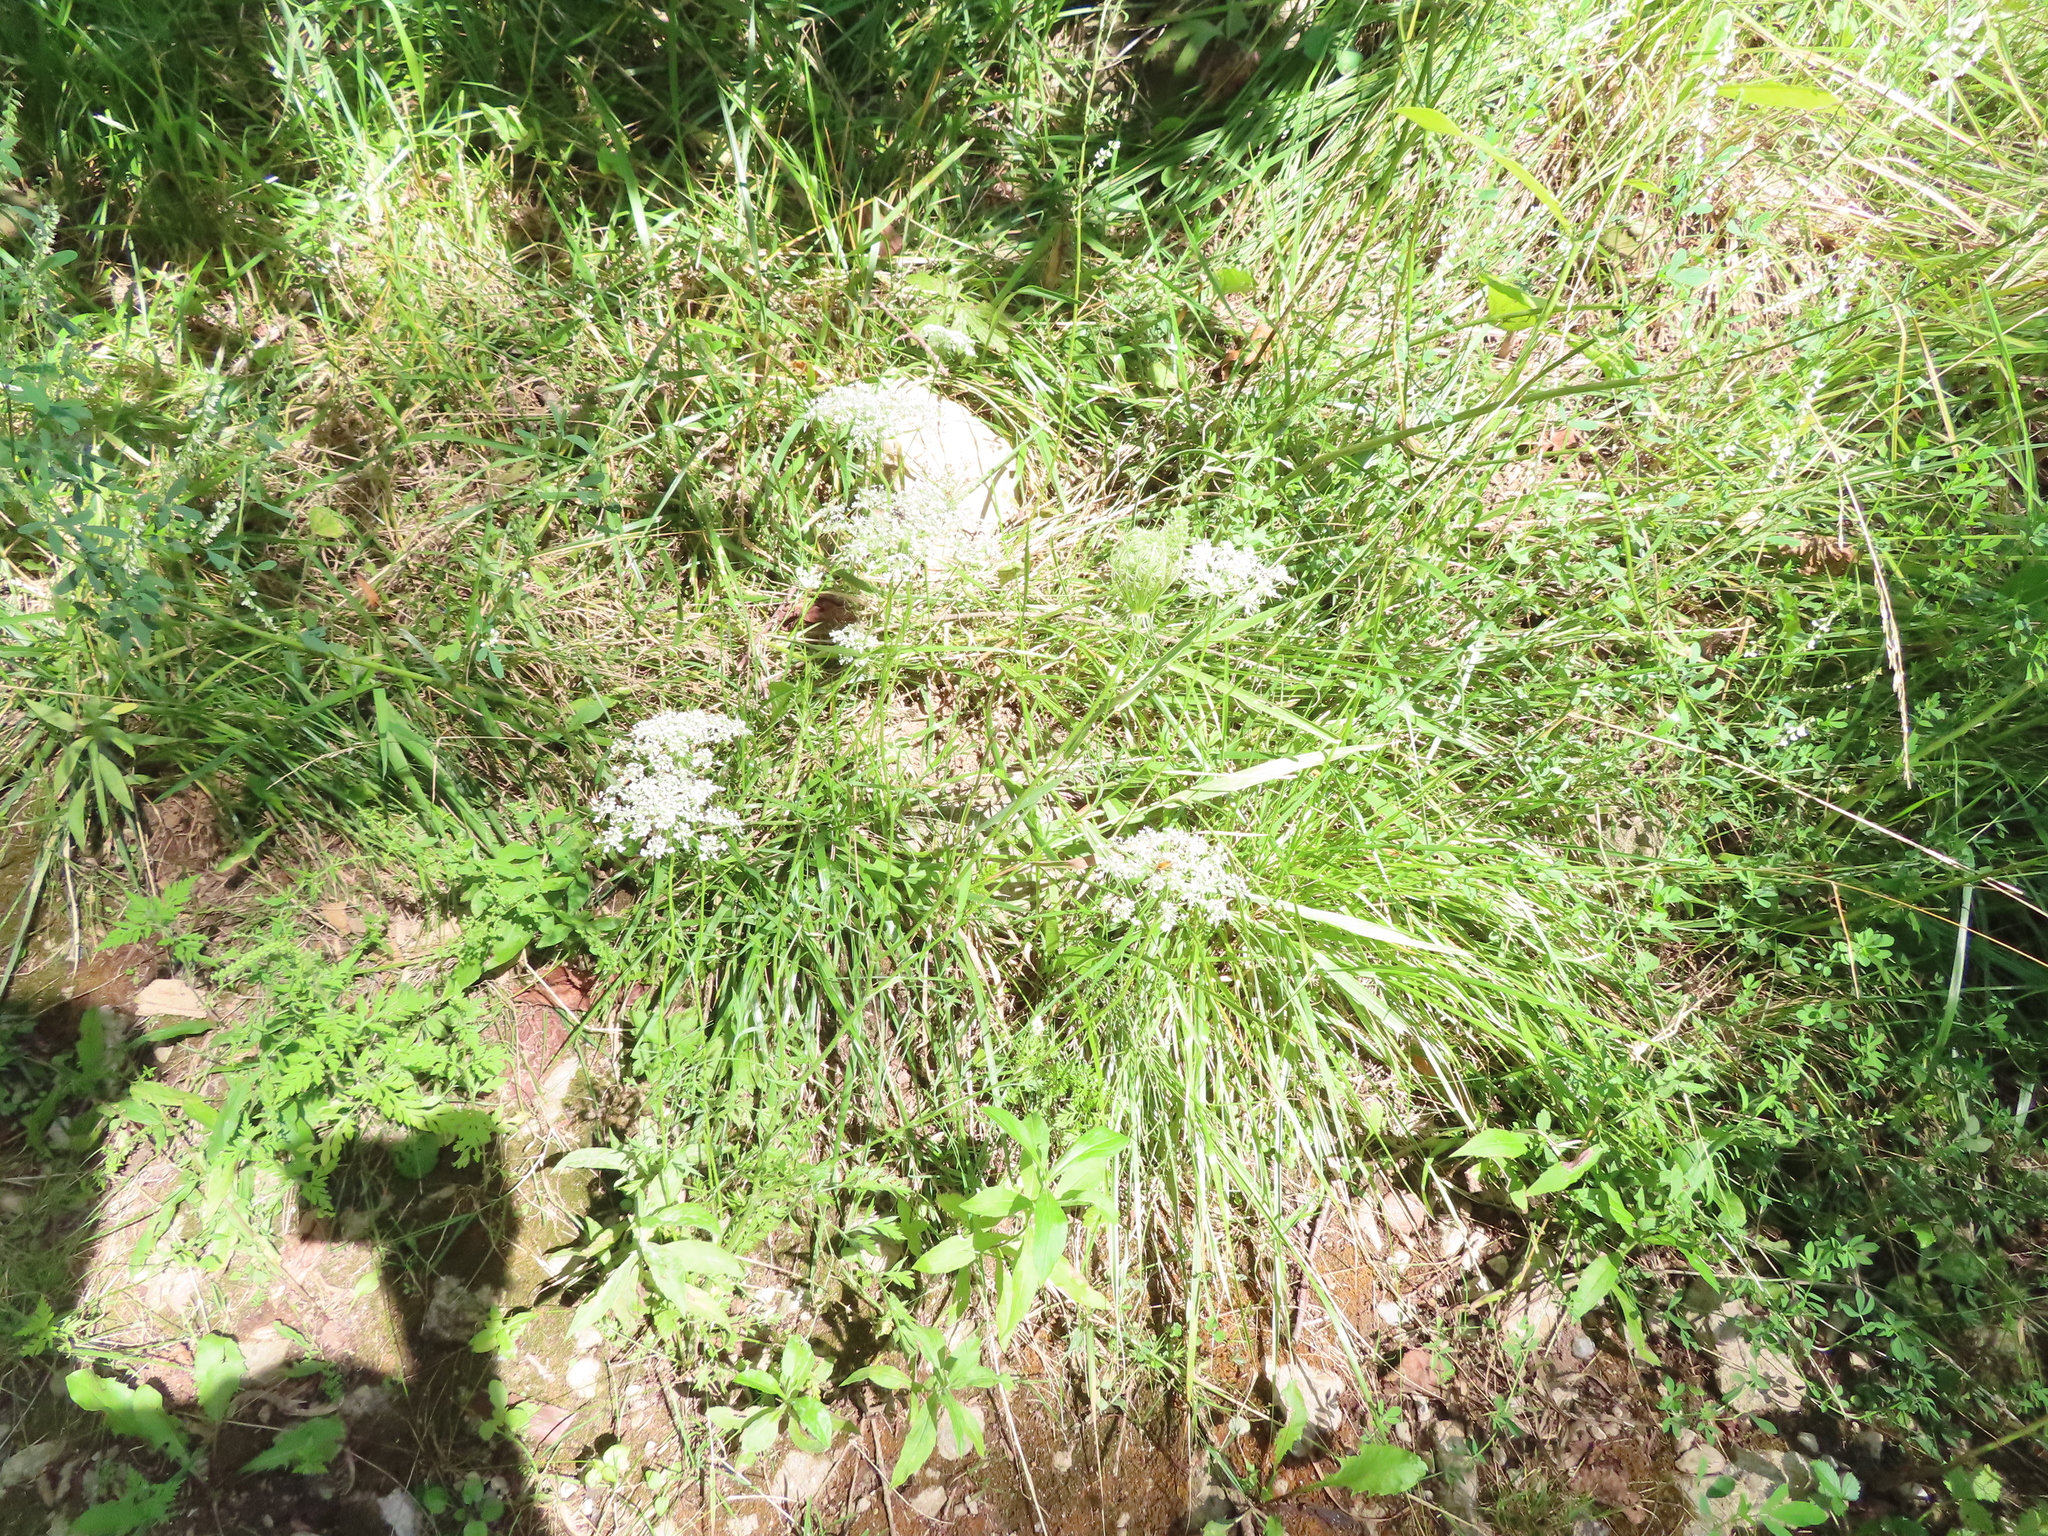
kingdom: Plantae
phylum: Tracheophyta
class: Magnoliopsida
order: Apiales
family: Apiaceae
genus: Daucus
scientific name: Daucus carota
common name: Wild carrot
